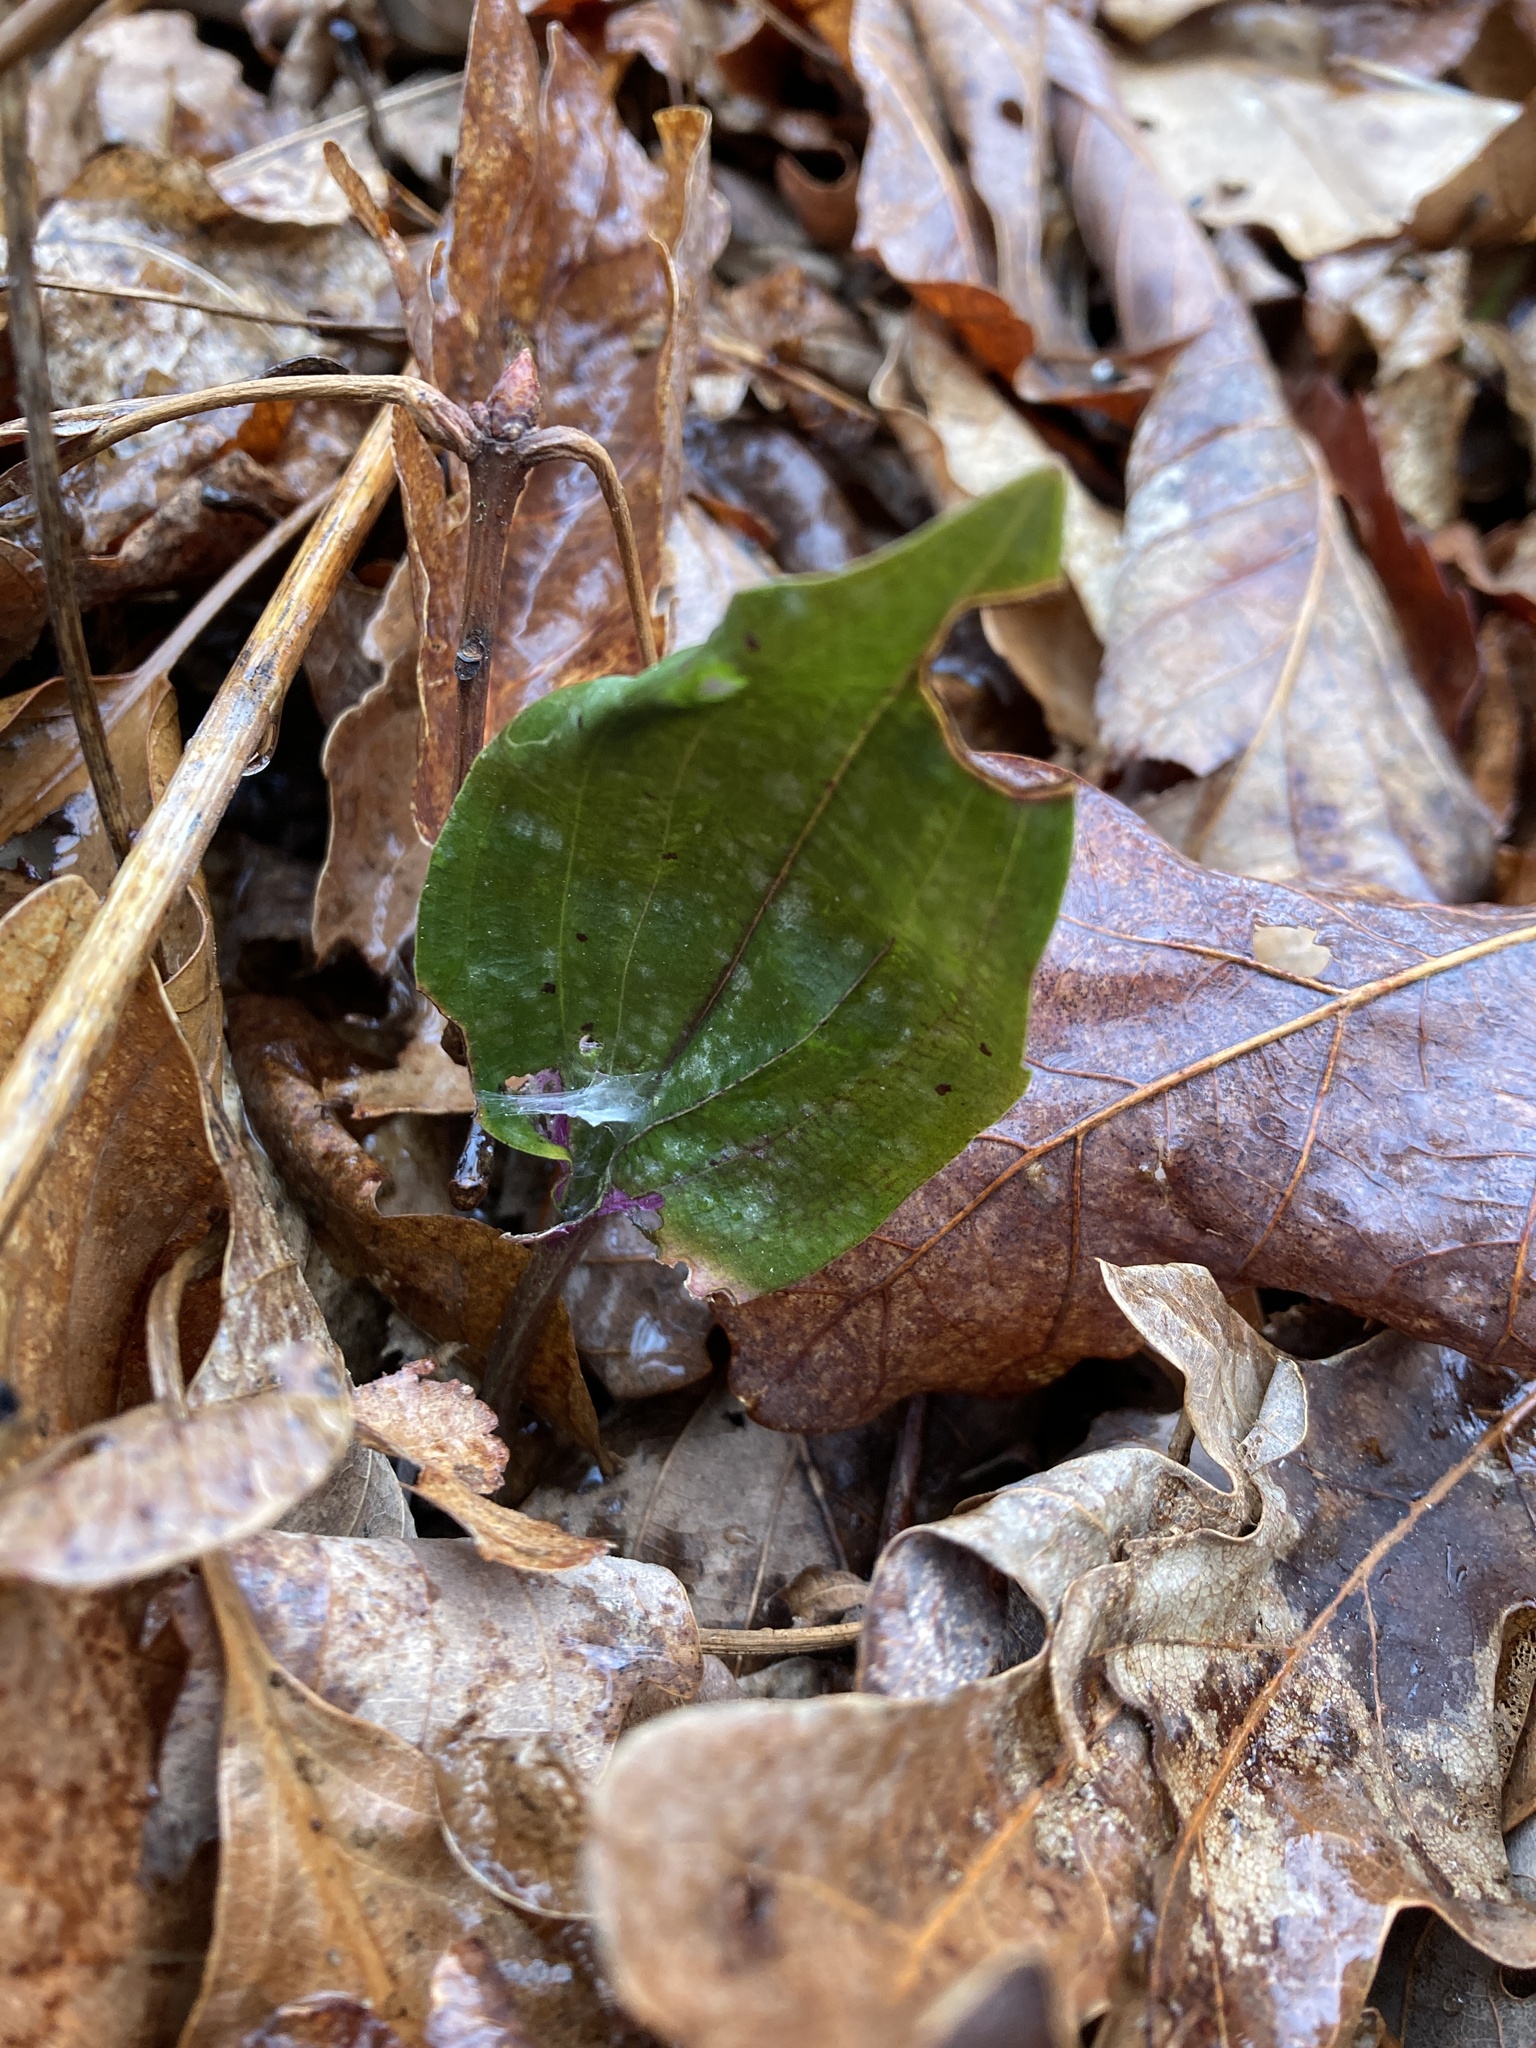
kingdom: Plantae
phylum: Tracheophyta
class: Liliopsida
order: Asparagales
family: Orchidaceae
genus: Tipularia
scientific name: Tipularia discolor
